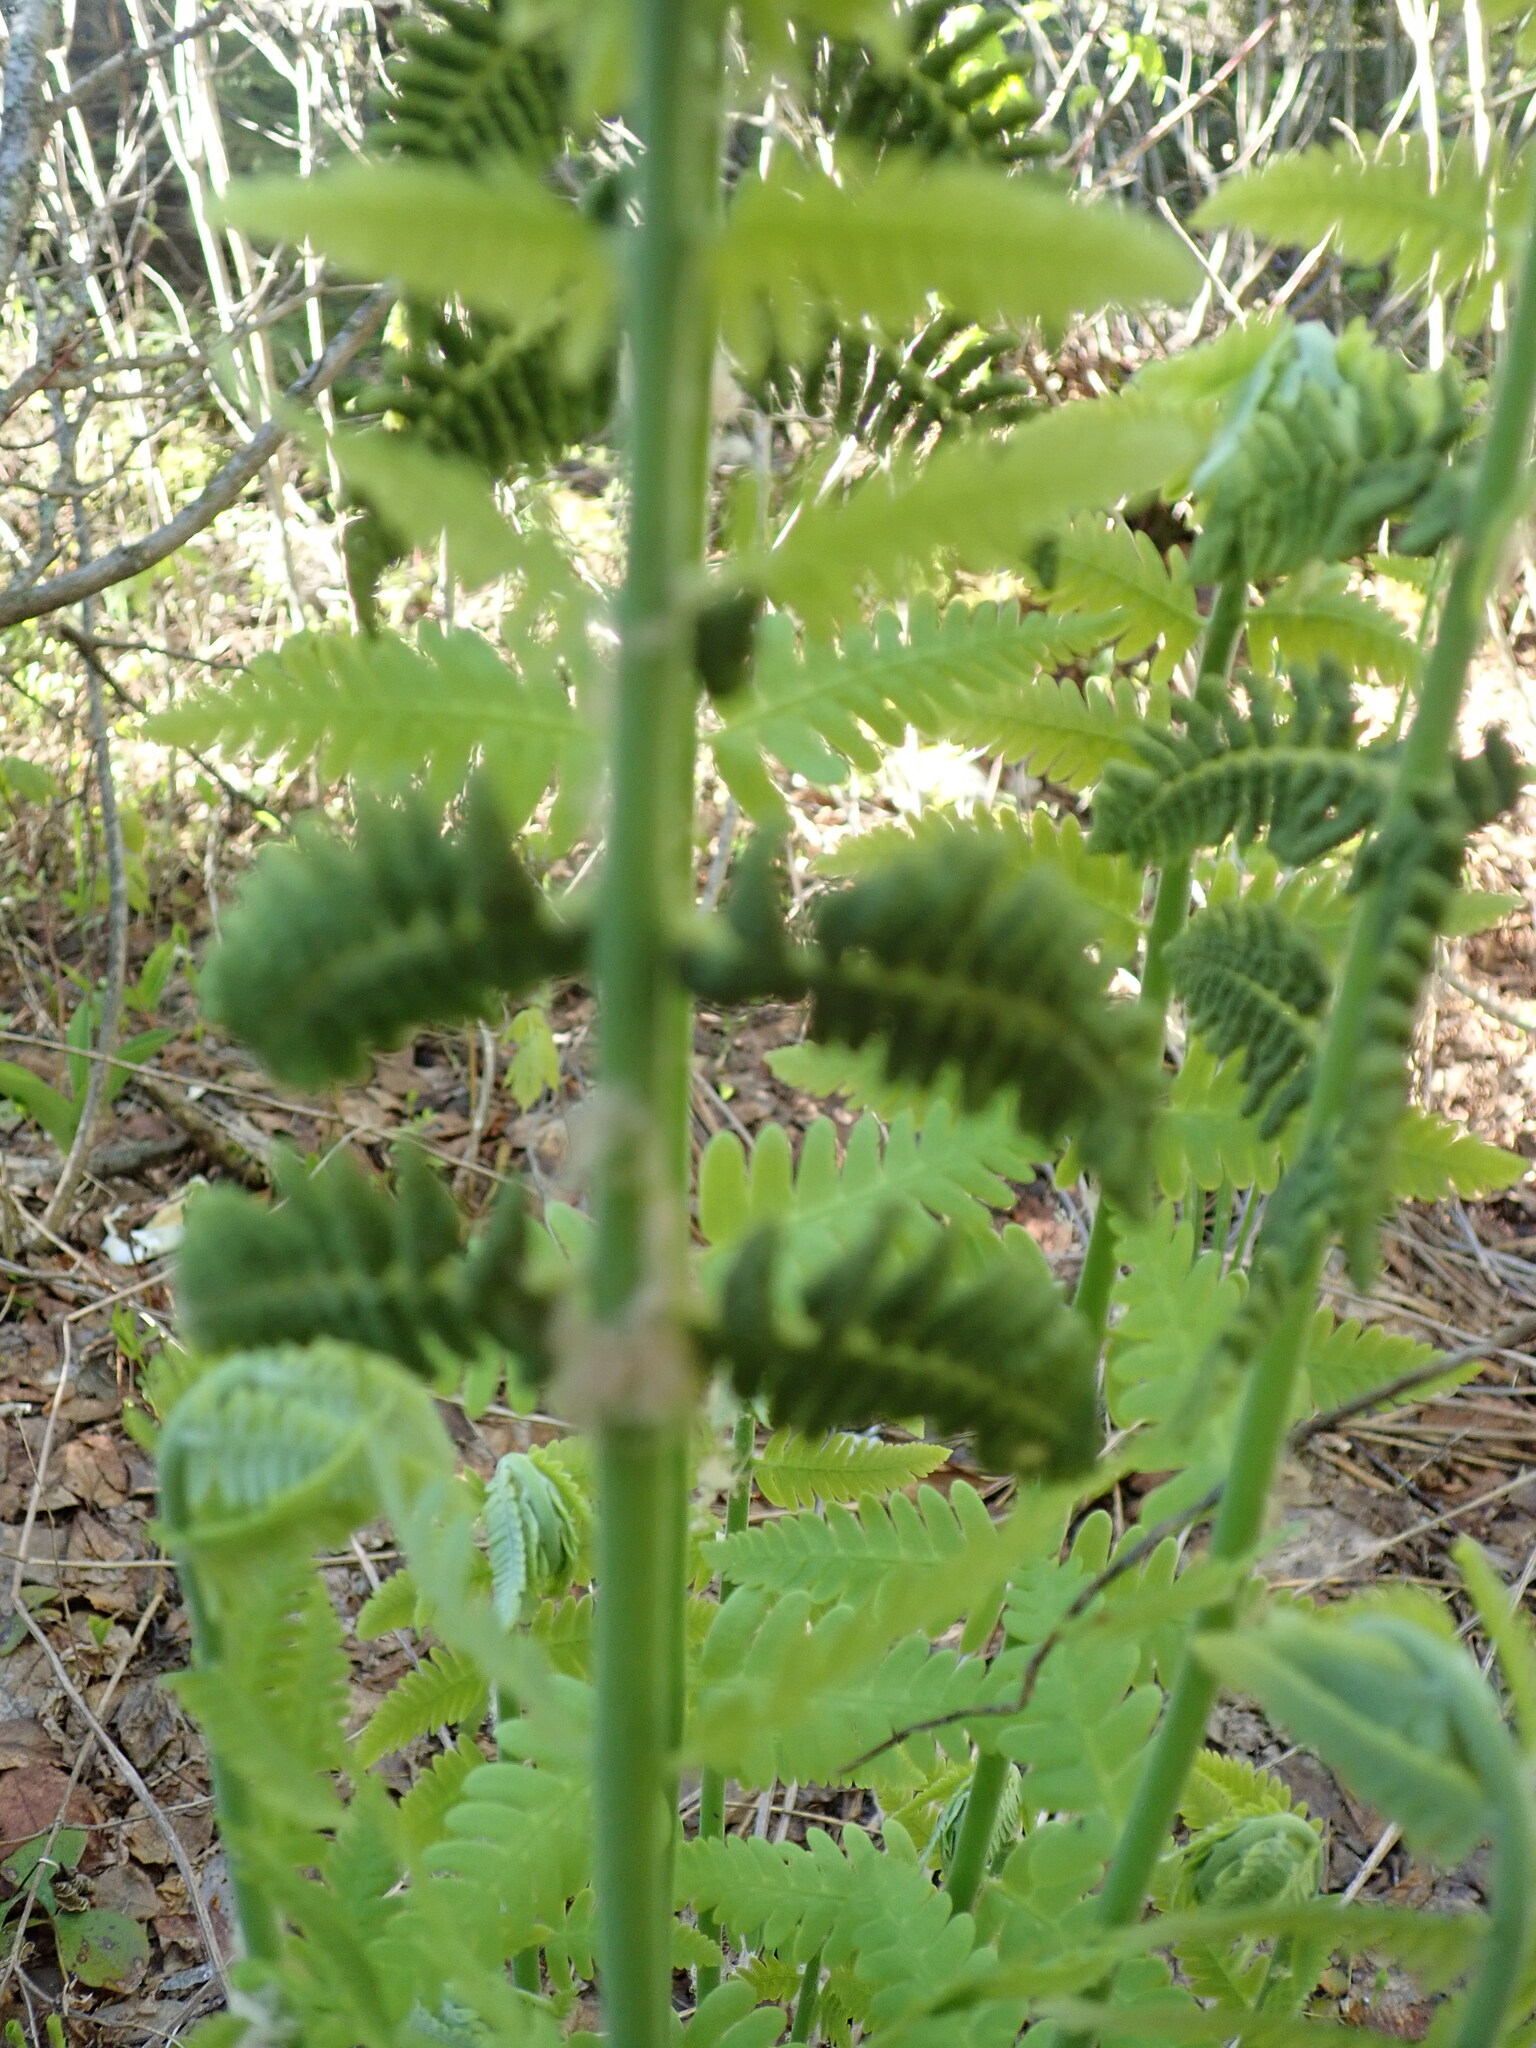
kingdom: Plantae
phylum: Tracheophyta
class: Polypodiopsida
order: Osmundales
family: Osmundaceae
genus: Claytosmunda
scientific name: Claytosmunda claytoniana
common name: Clayton's fern
